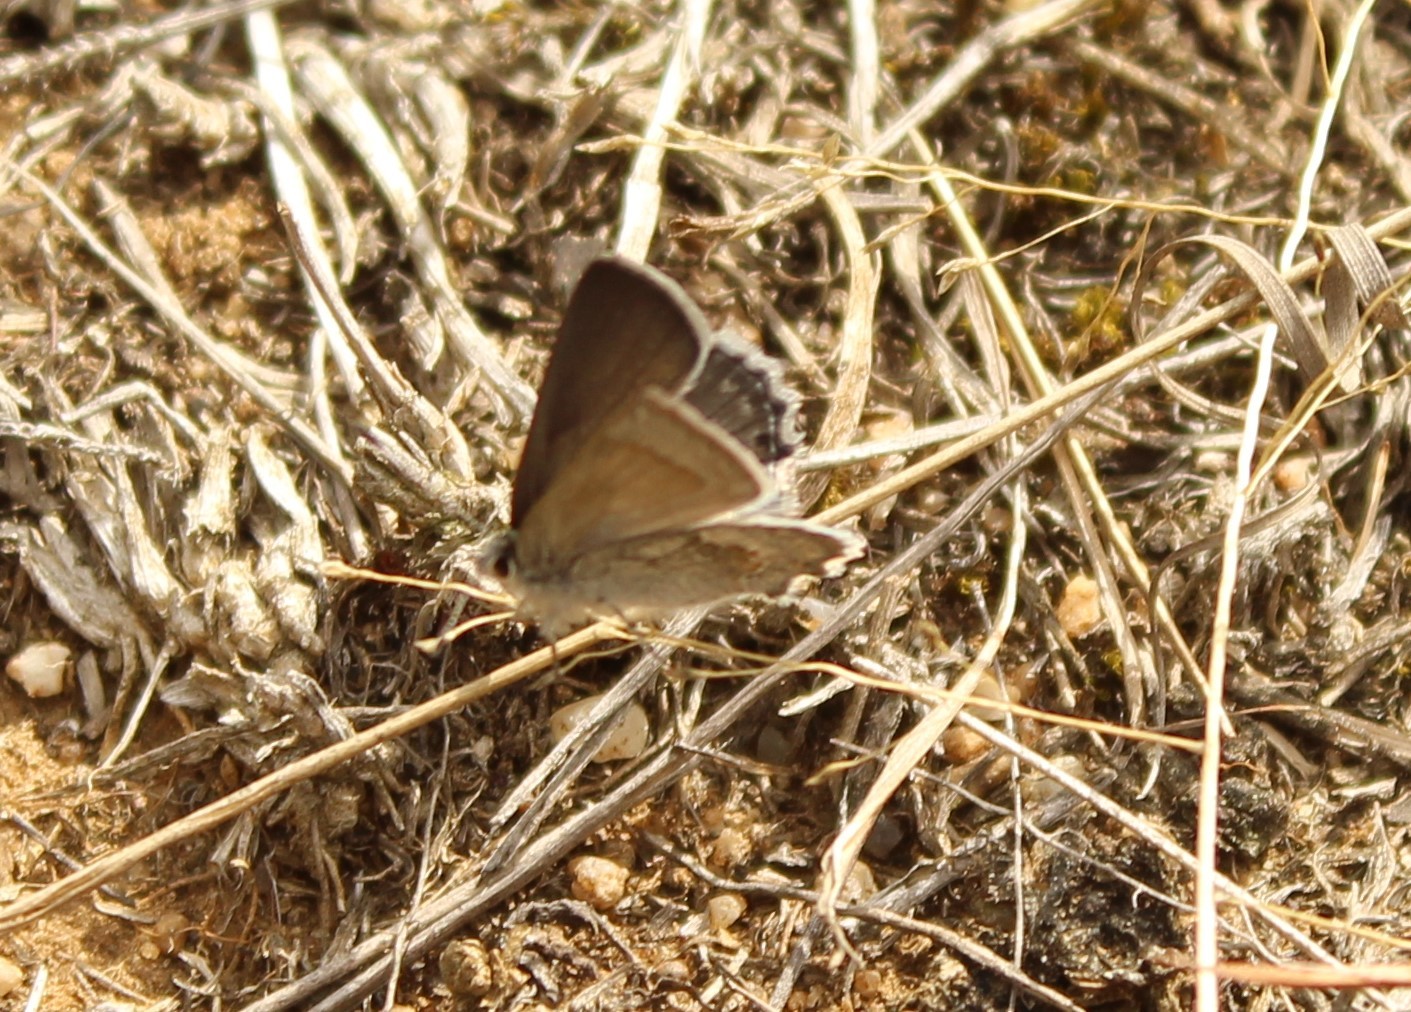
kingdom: Animalia
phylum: Arthropoda
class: Insecta
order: Lepidoptera
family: Lycaenidae
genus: Strymon
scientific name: Strymon
